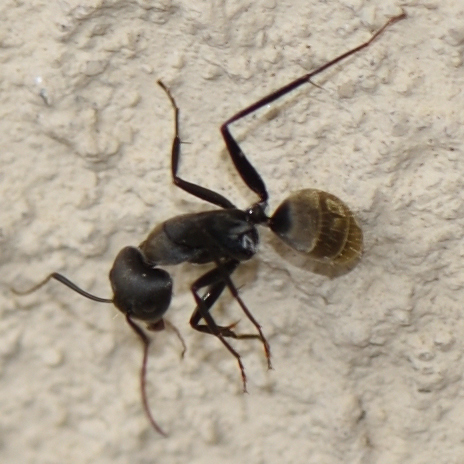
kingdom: Animalia
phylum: Arthropoda
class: Insecta
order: Hymenoptera
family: Formicidae
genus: Camponotus
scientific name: Camponotus cinctellus
